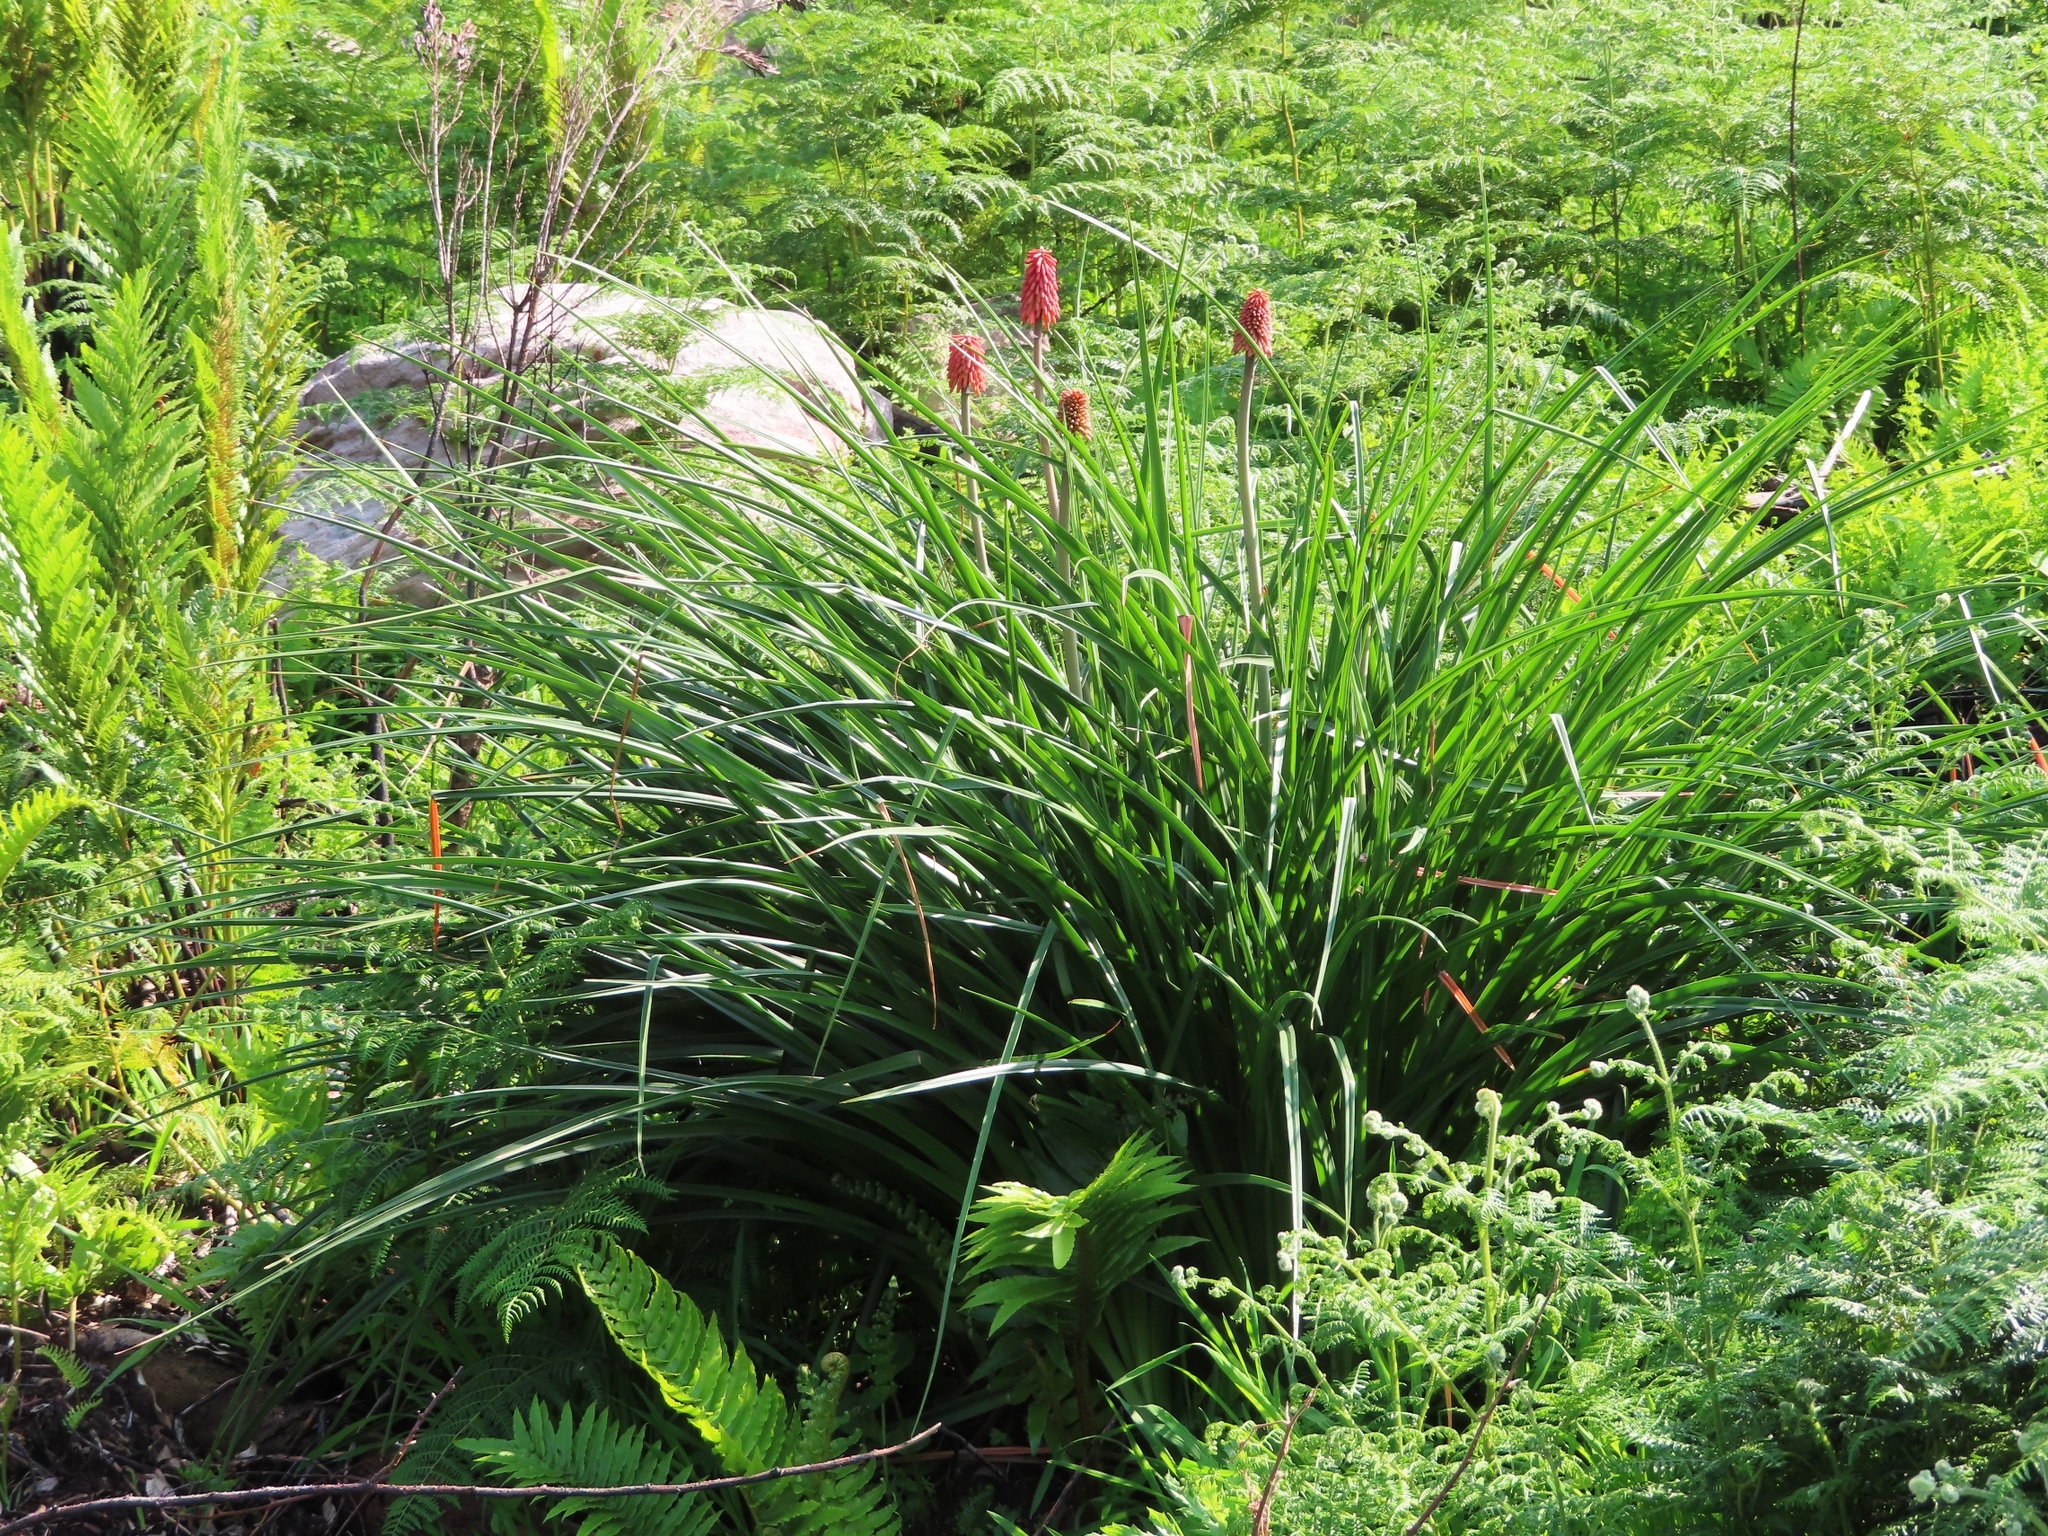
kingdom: Plantae
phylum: Tracheophyta
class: Liliopsida
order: Asparagales
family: Asphodelaceae
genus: Kniphofia
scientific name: Kniphofia uvaria
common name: Red-hot-poker
